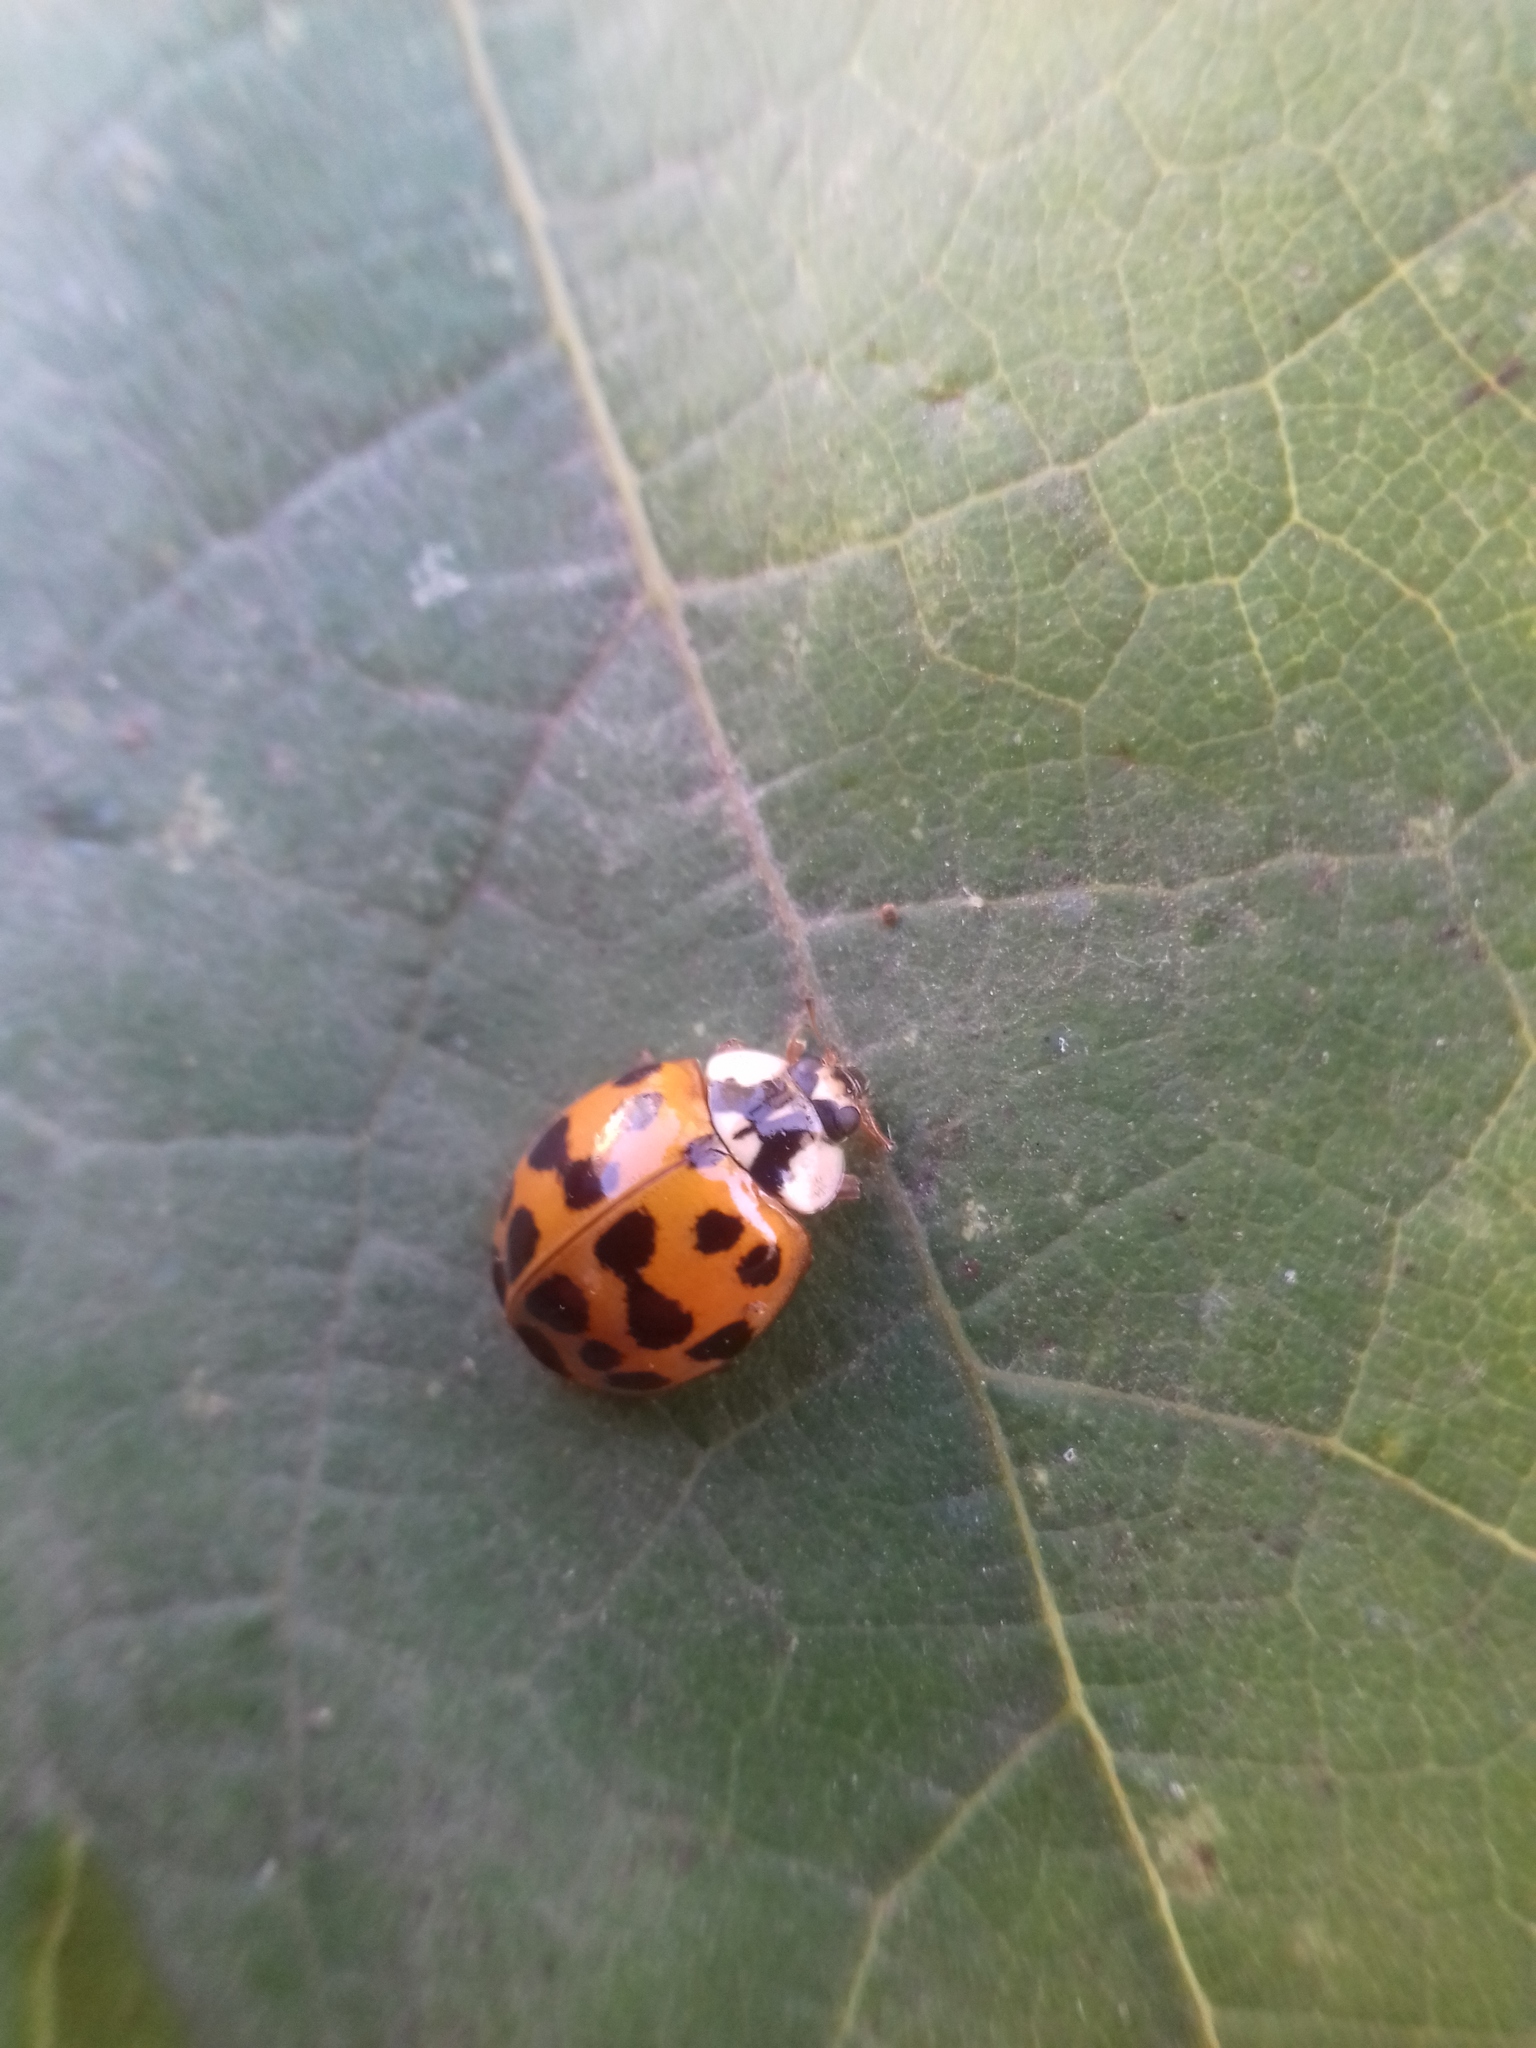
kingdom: Animalia
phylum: Arthropoda
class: Insecta
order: Coleoptera
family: Coccinellidae
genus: Harmonia
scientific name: Harmonia axyridis
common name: Harlequin ladybird
